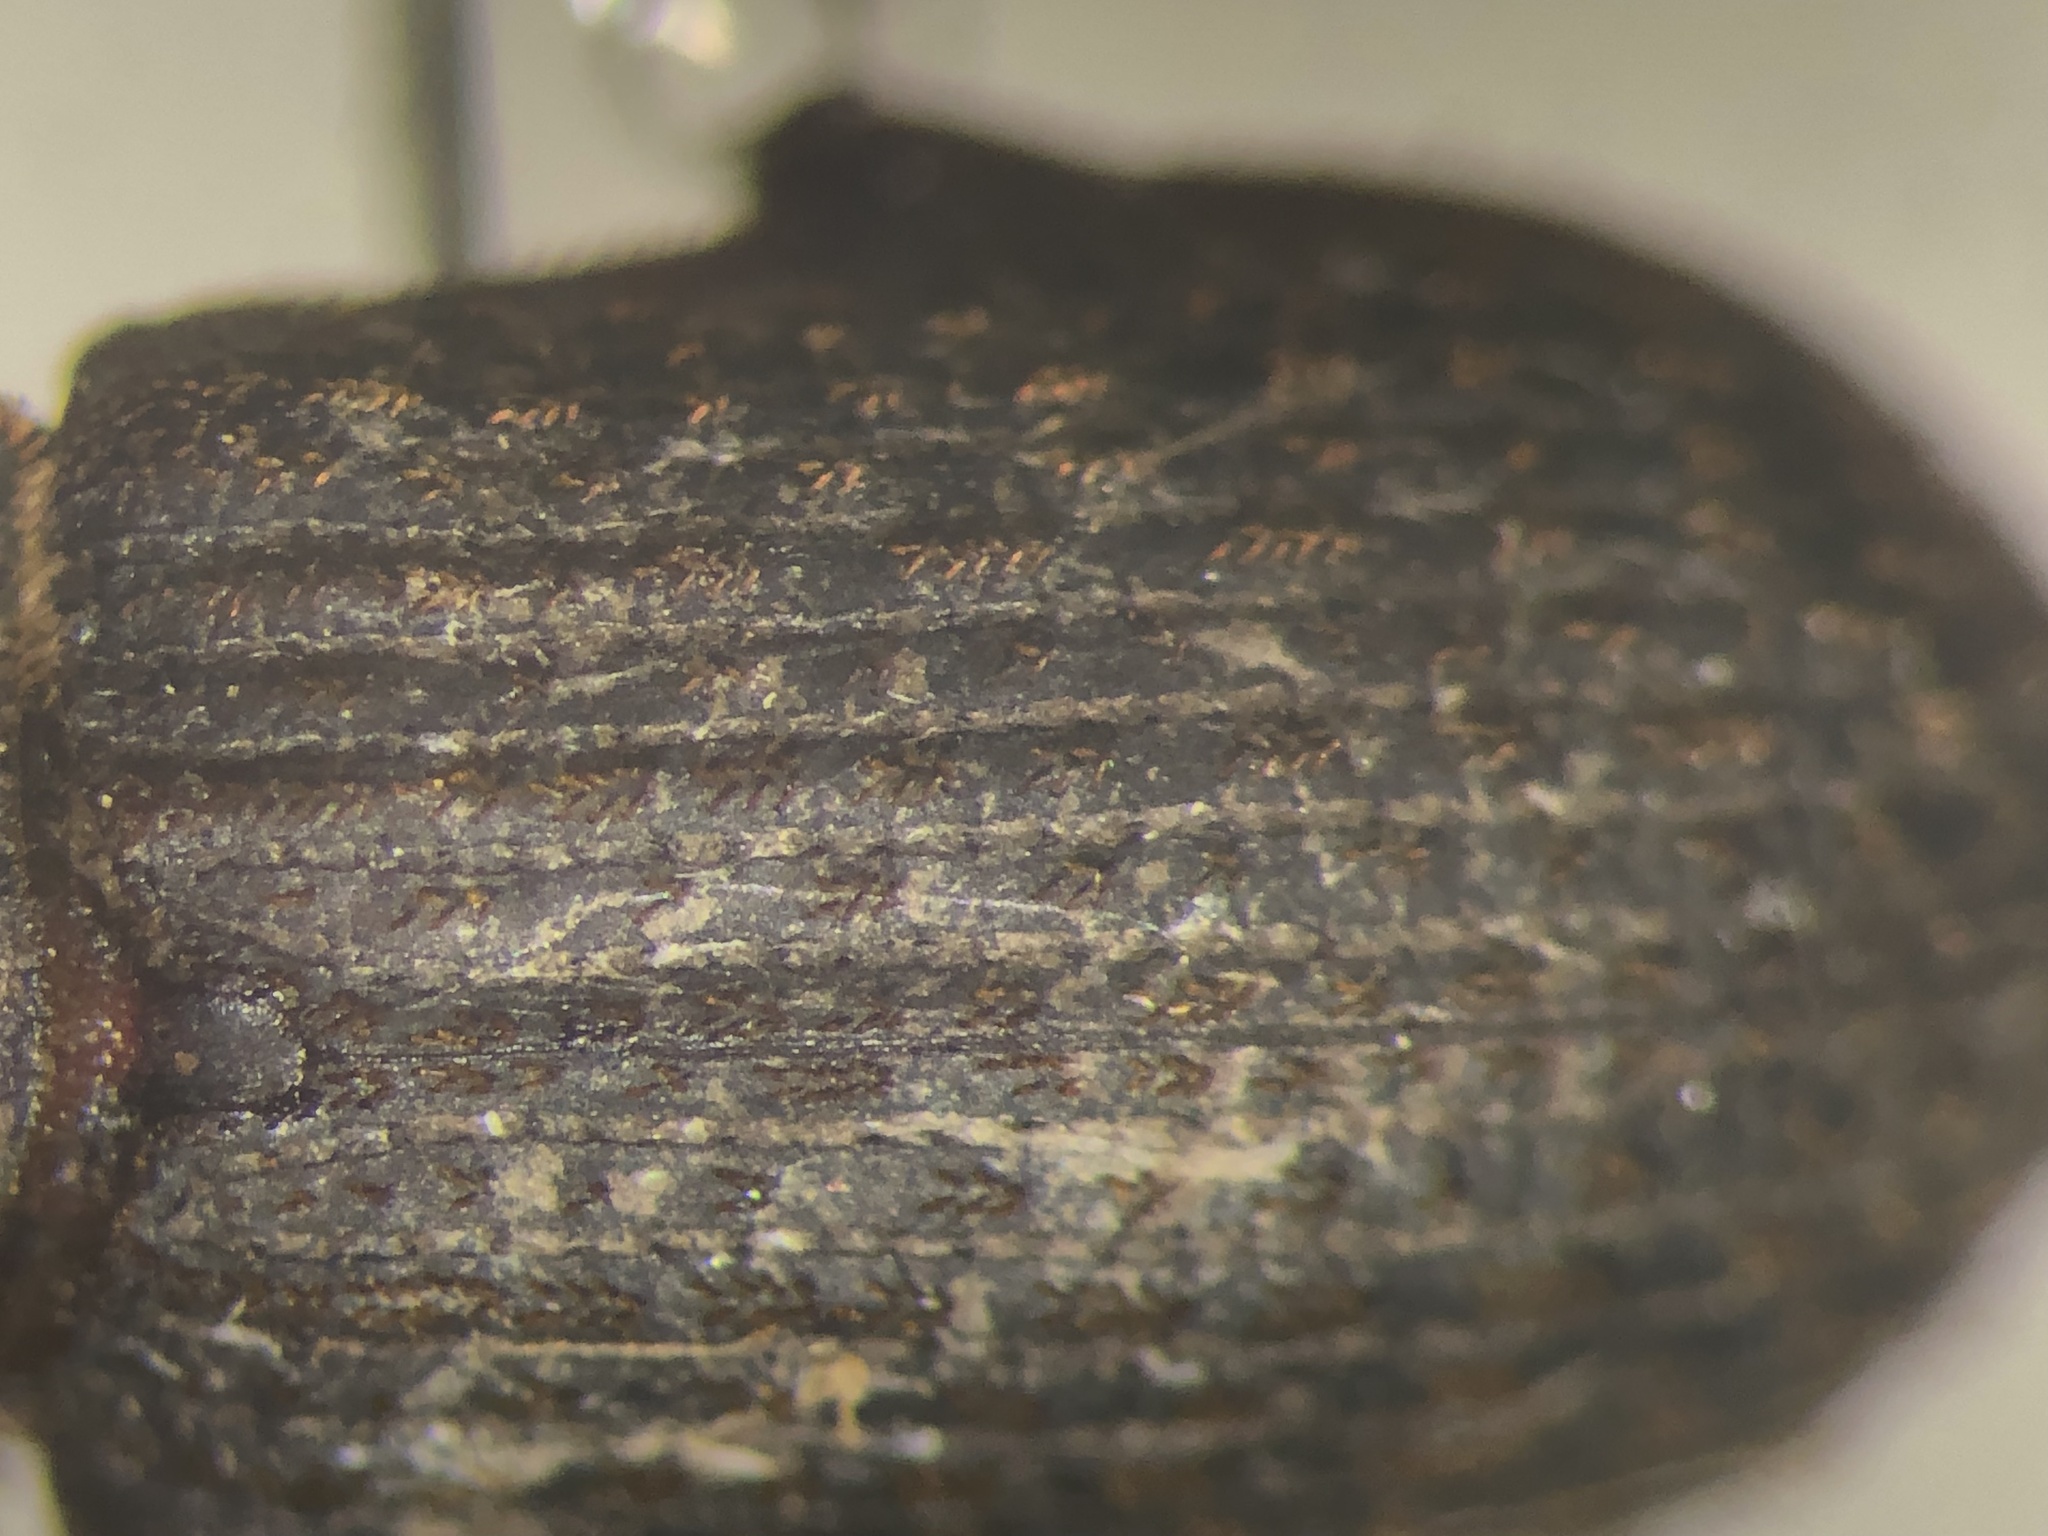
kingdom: Animalia
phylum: Arthropoda
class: Insecta
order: Coleoptera
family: Trogidae
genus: Trox
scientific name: Trox aequalis
